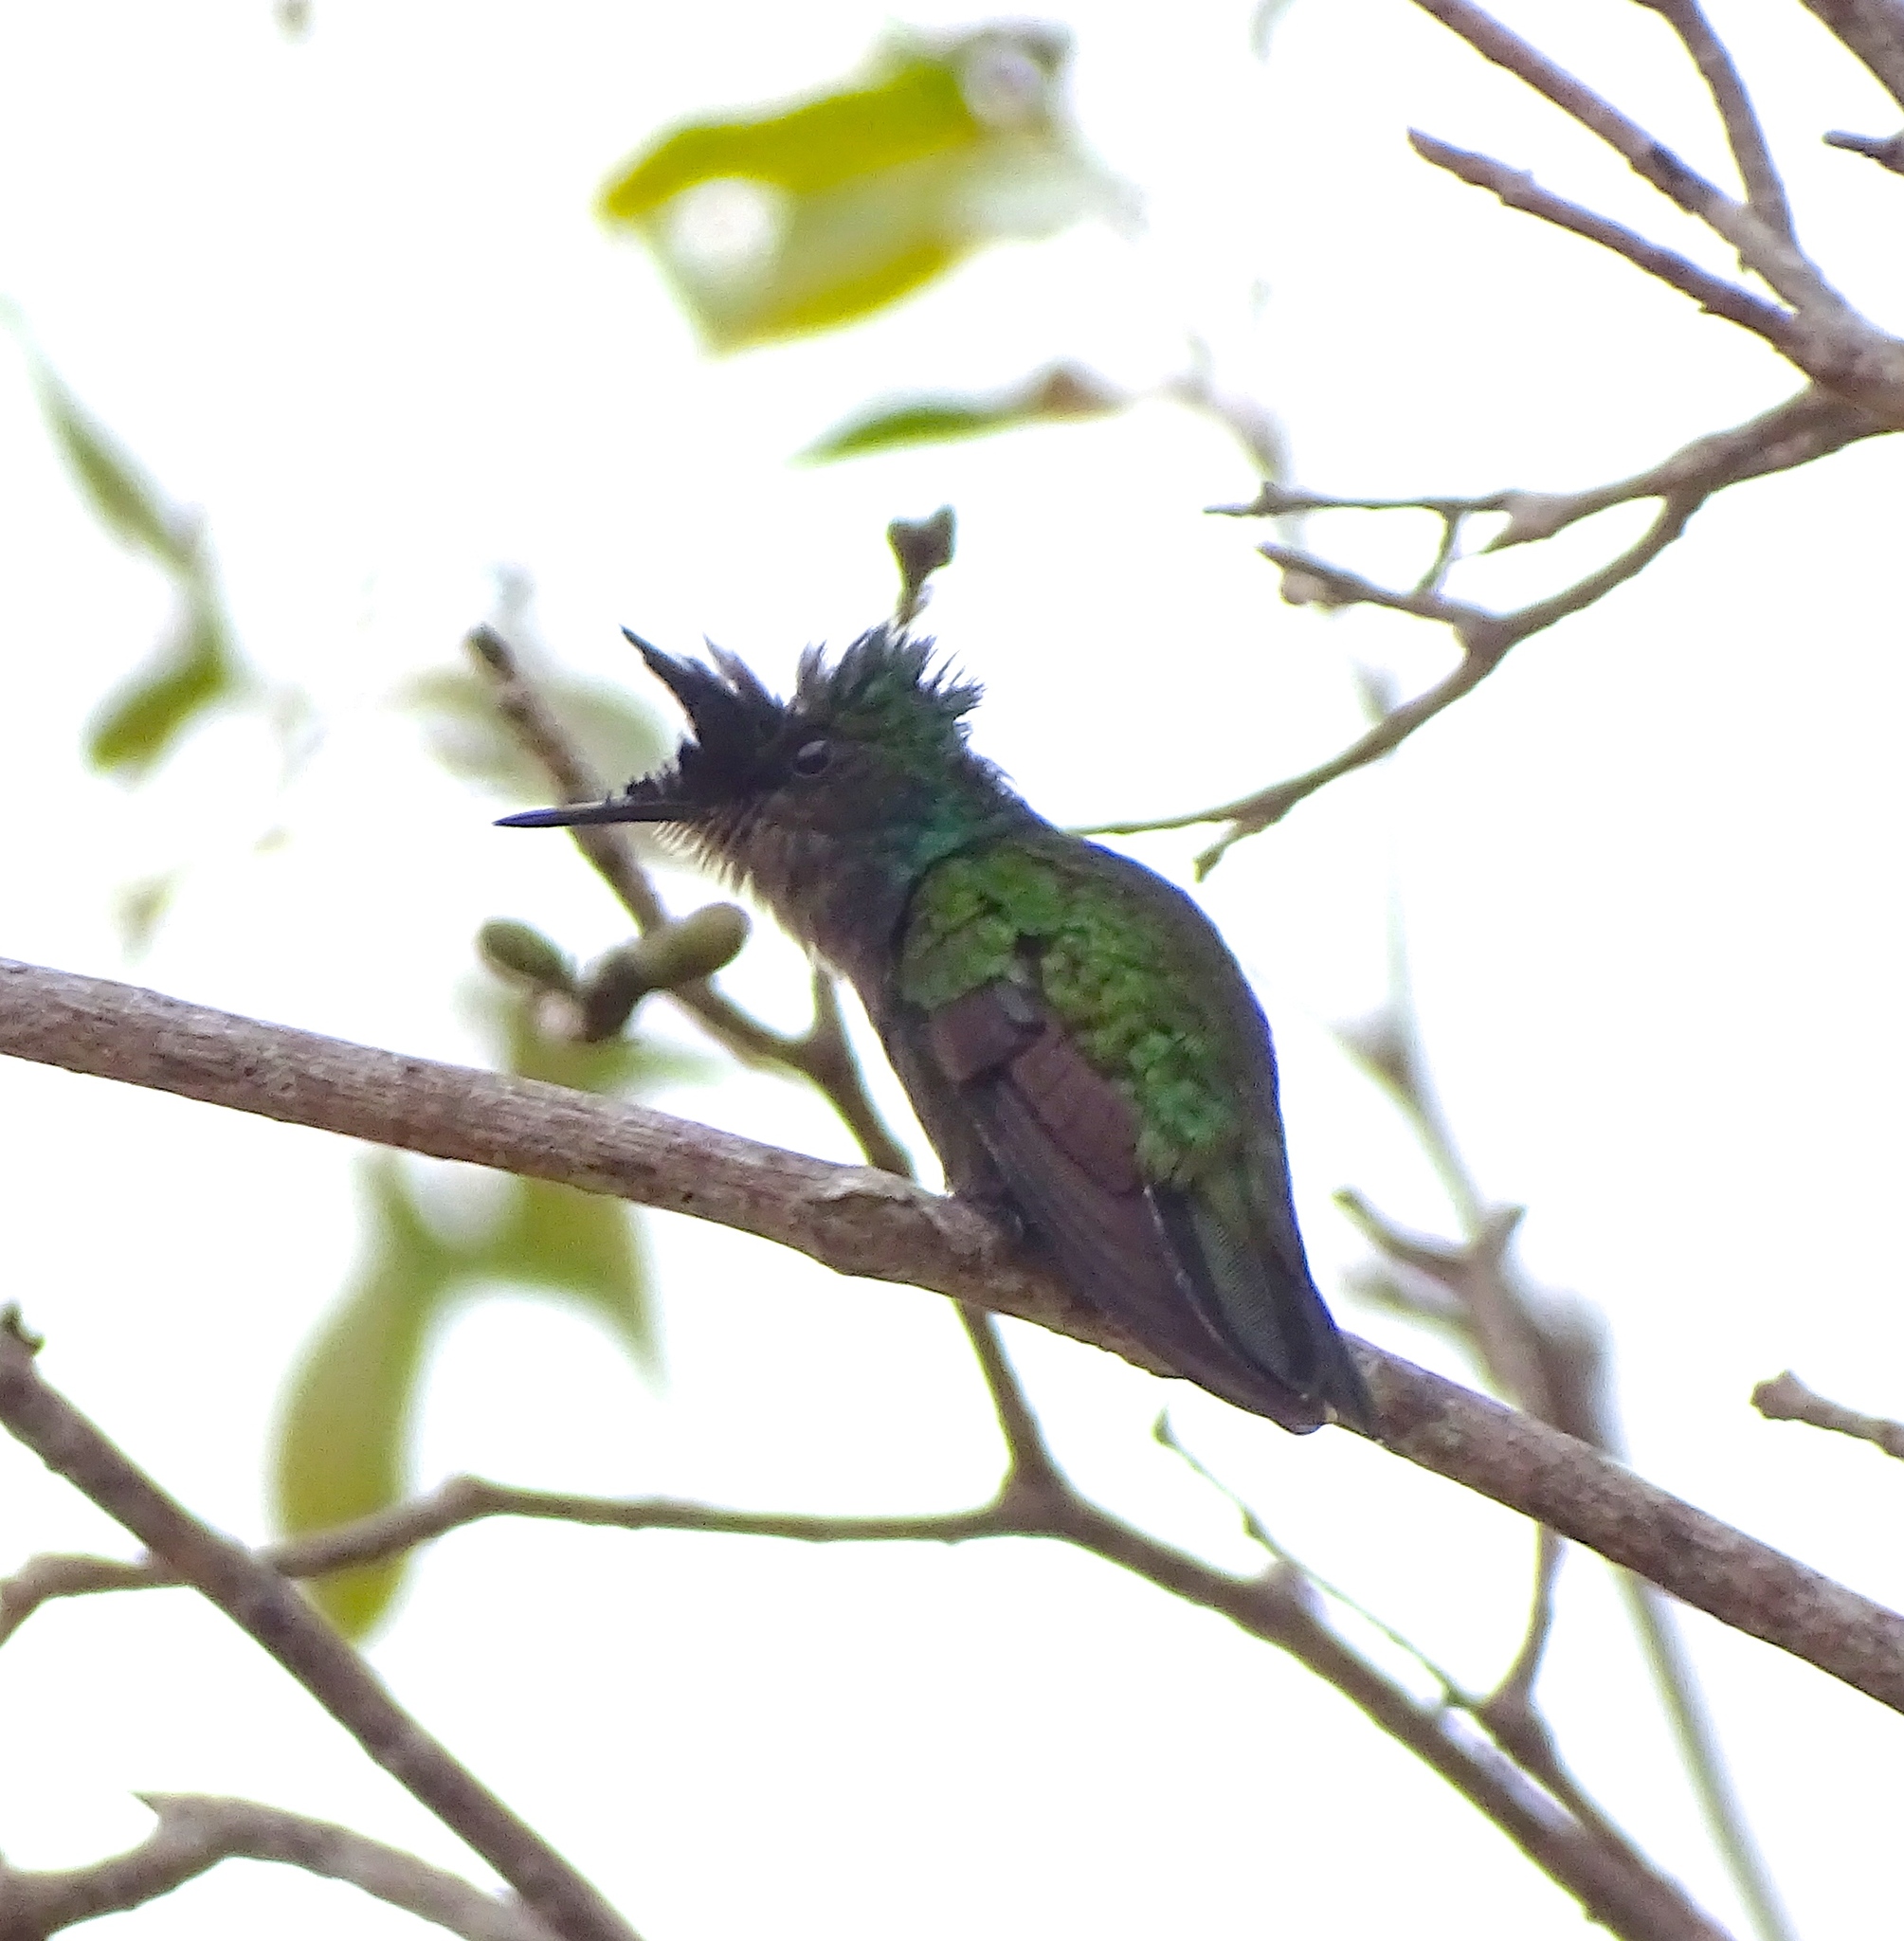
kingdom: Animalia
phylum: Chordata
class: Aves
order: Apodiformes
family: Trochilidae
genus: Orthorhyncus
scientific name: Orthorhyncus cristatus
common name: Antillean crested hummingbird
